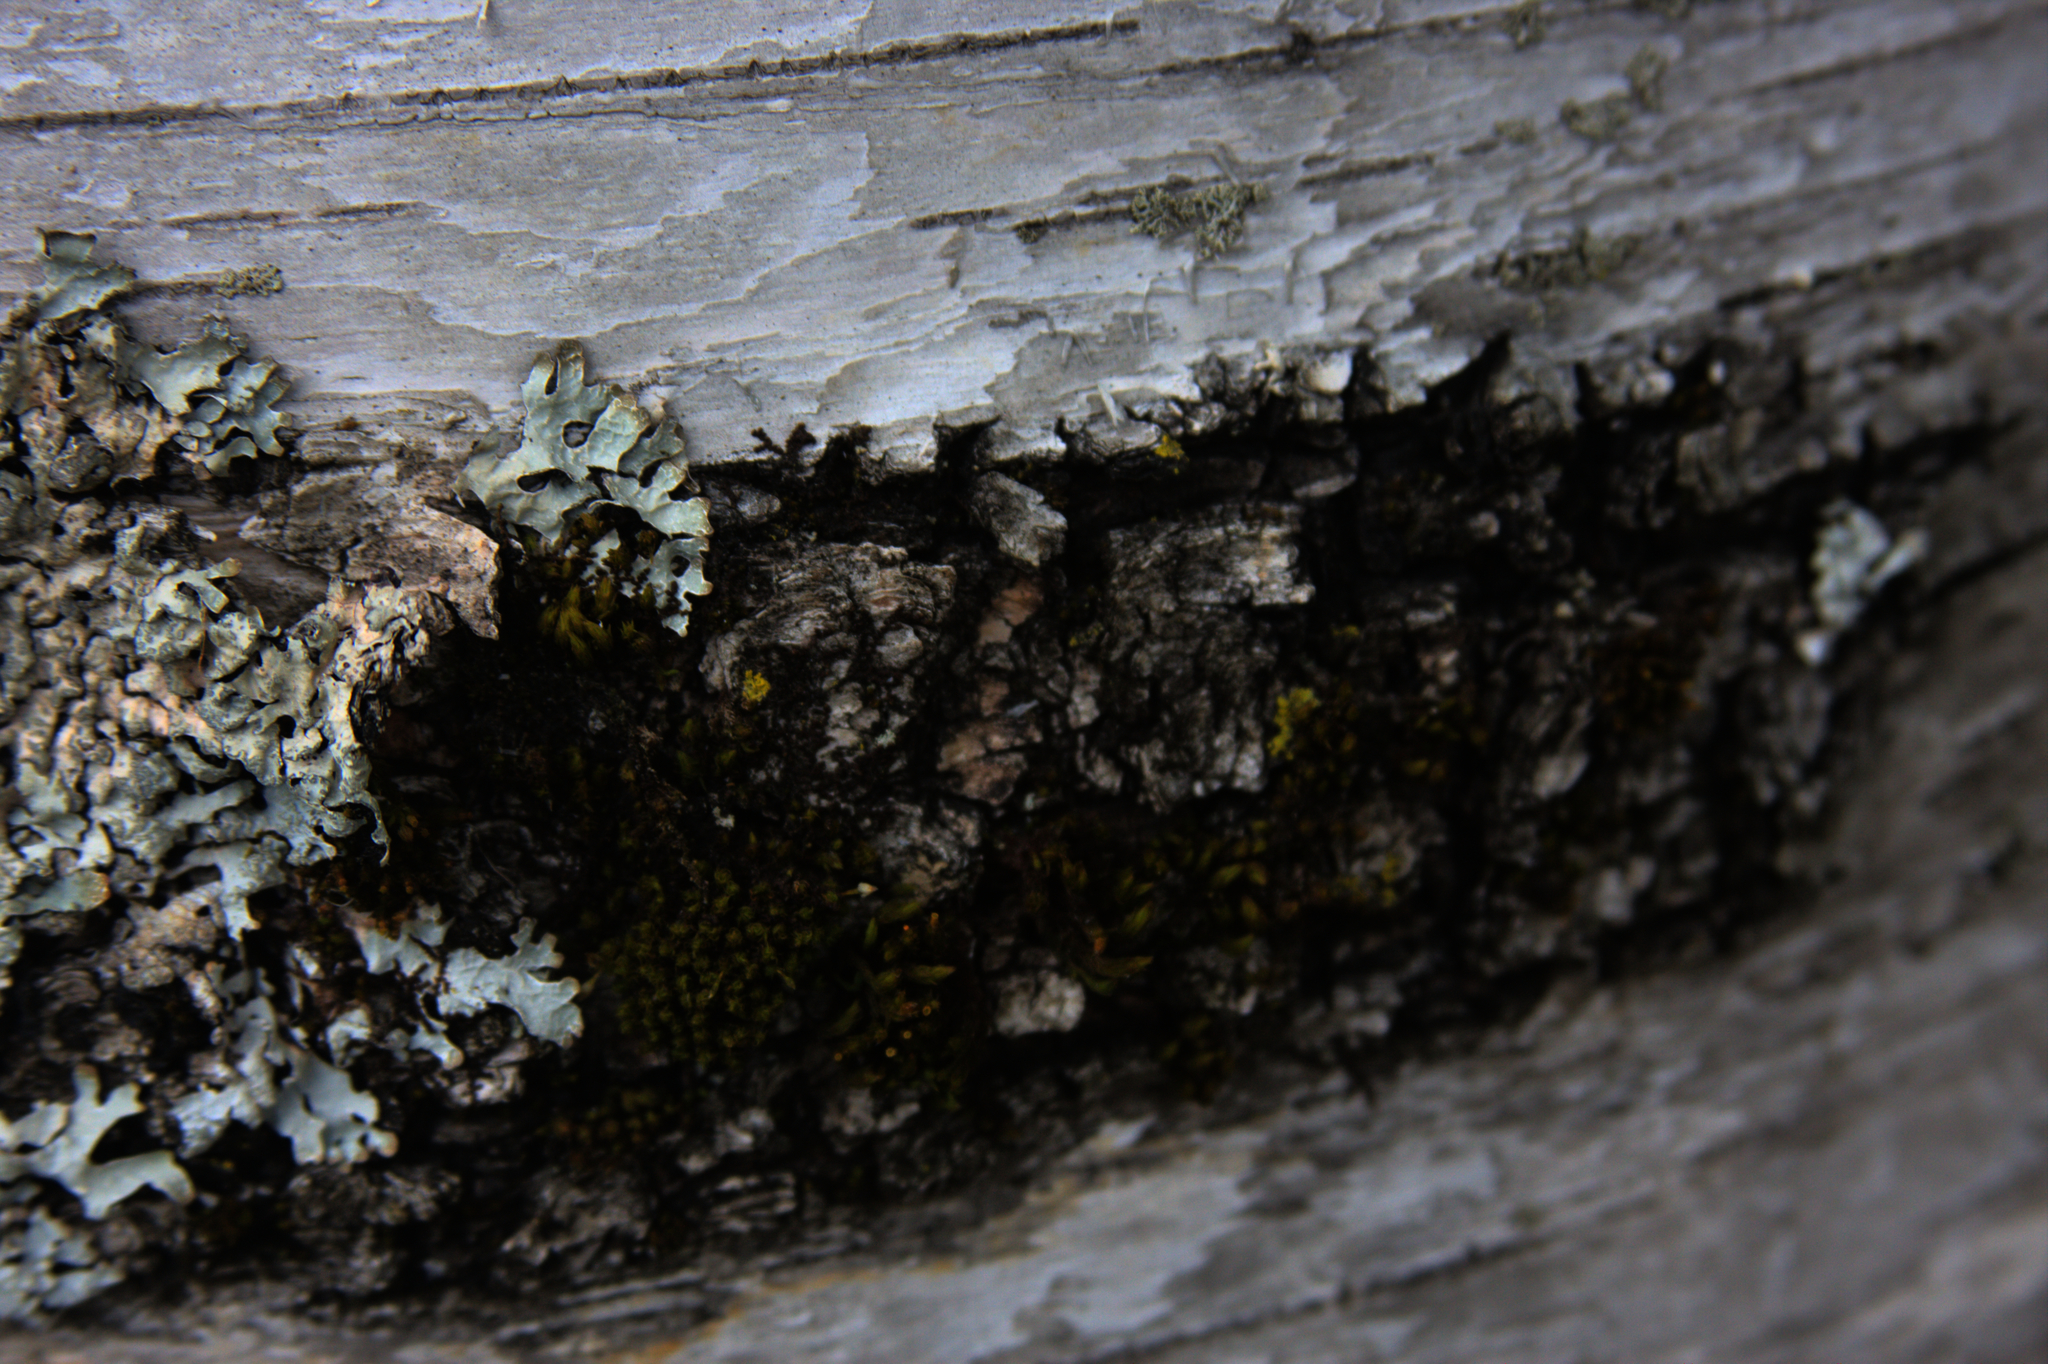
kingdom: Plantae
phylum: Bryophyta
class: Bryopsida
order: Orthotrichales
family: Orthotrichaceae
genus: Ulota
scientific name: Ulota crispa
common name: Crisped pincushion moss
